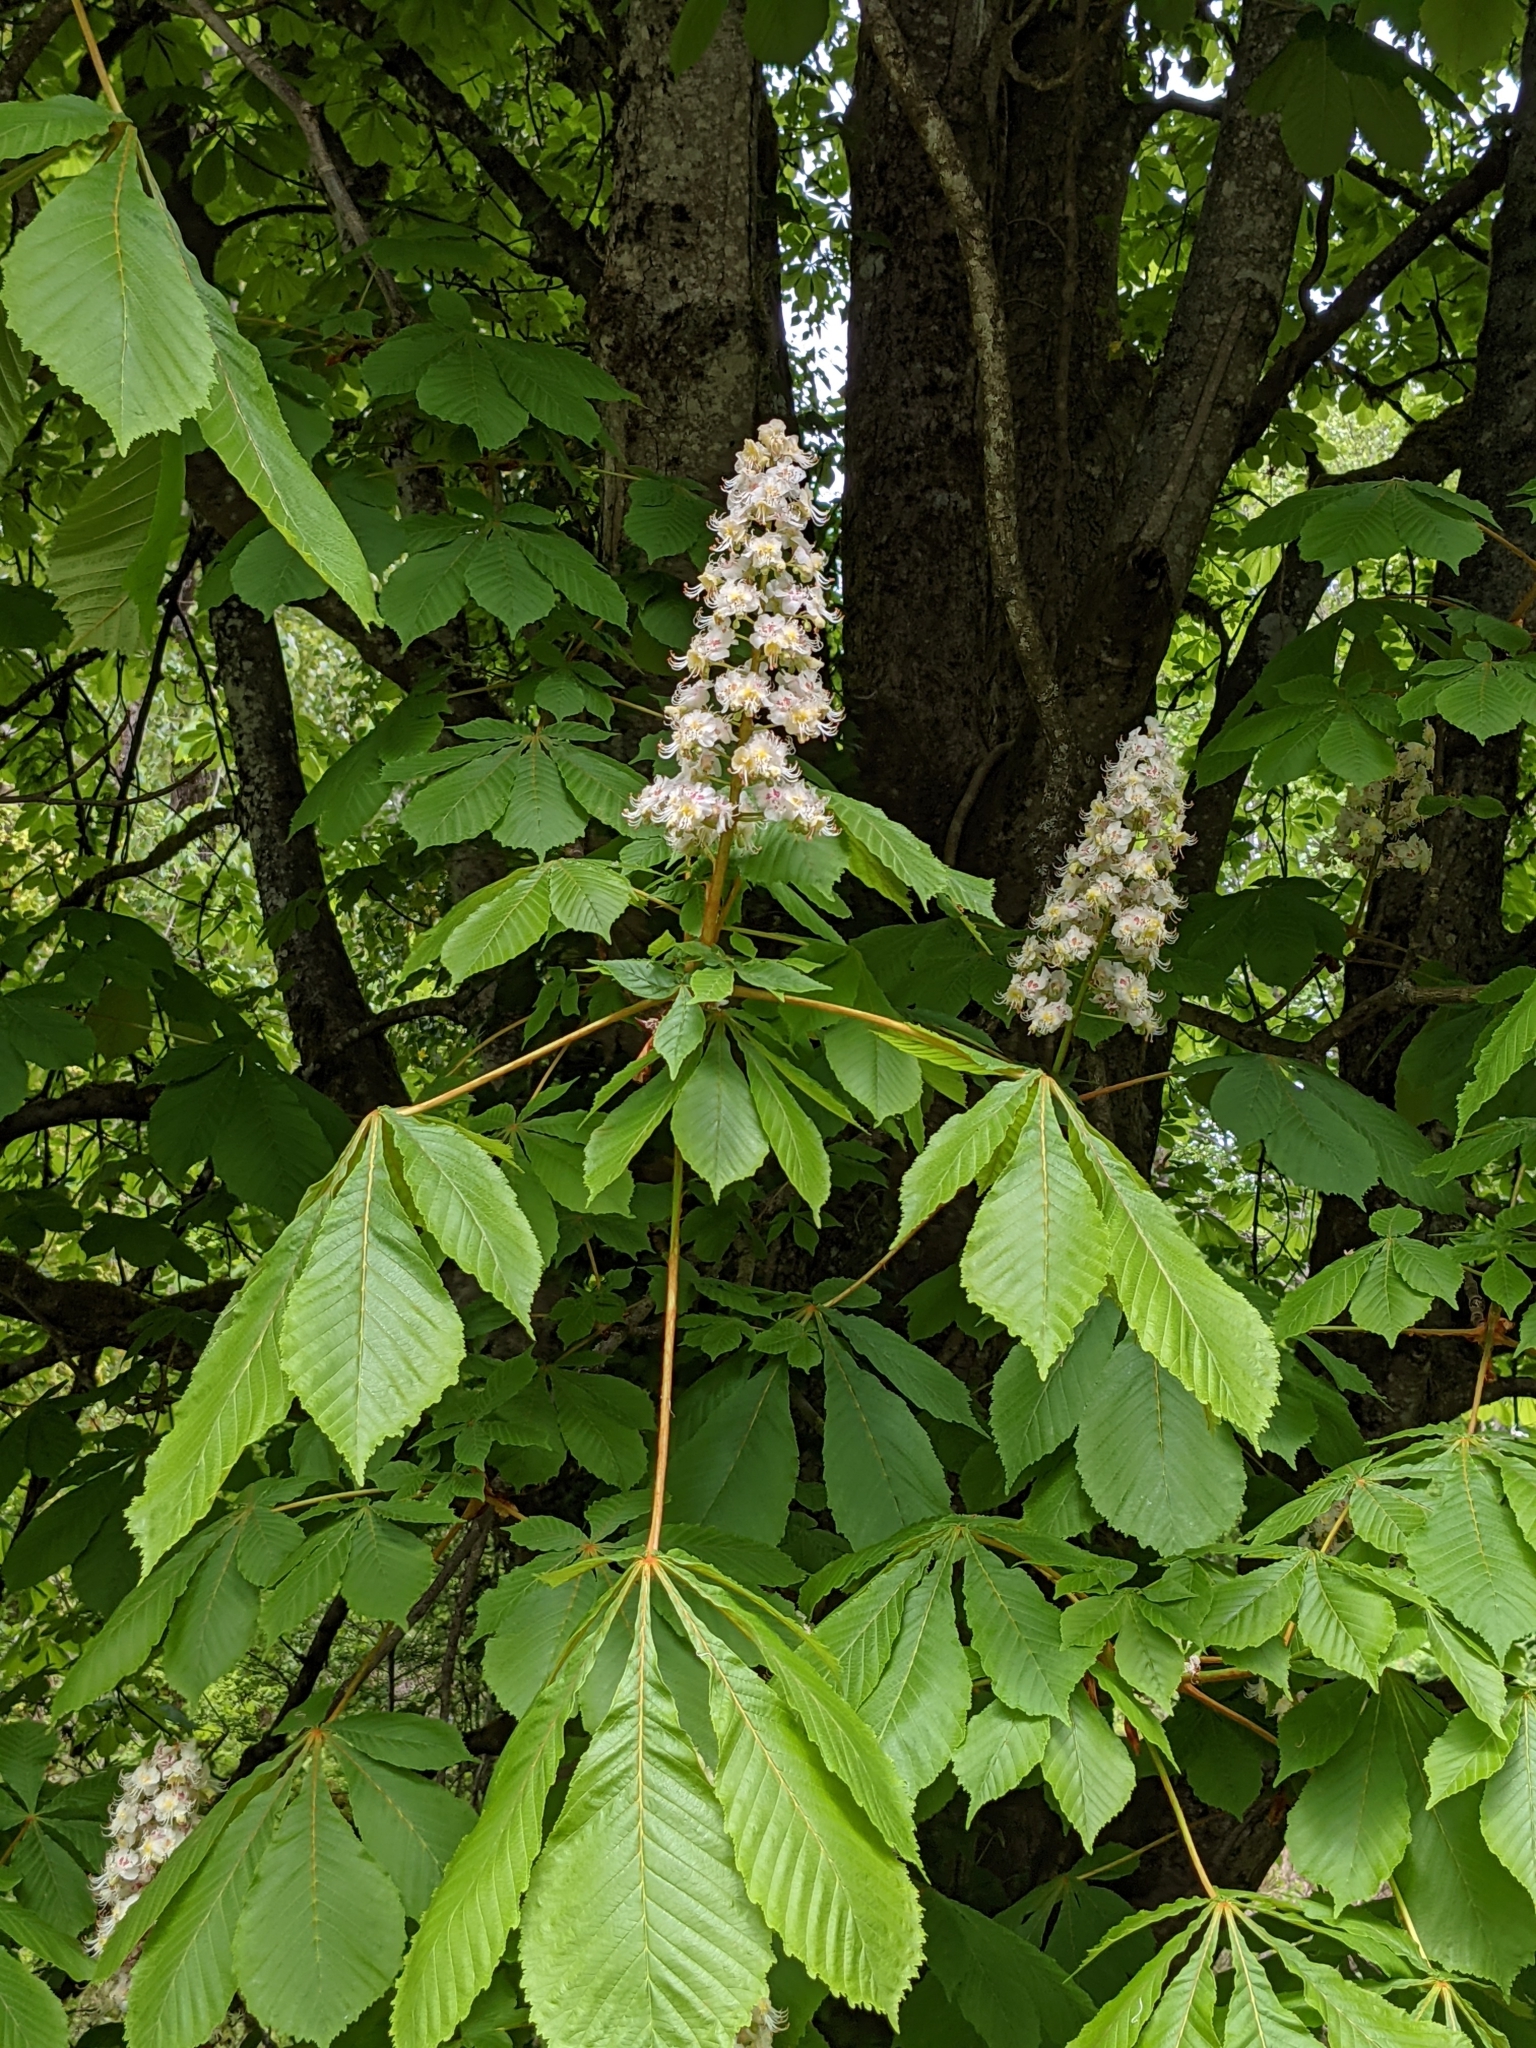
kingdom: Plantae
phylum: Tracheophyta
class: Magnoliopsida
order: Sapindales
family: Sapindaceae
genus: Aesculus
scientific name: Aesculus hippocastanum
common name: Horse-chestnut
